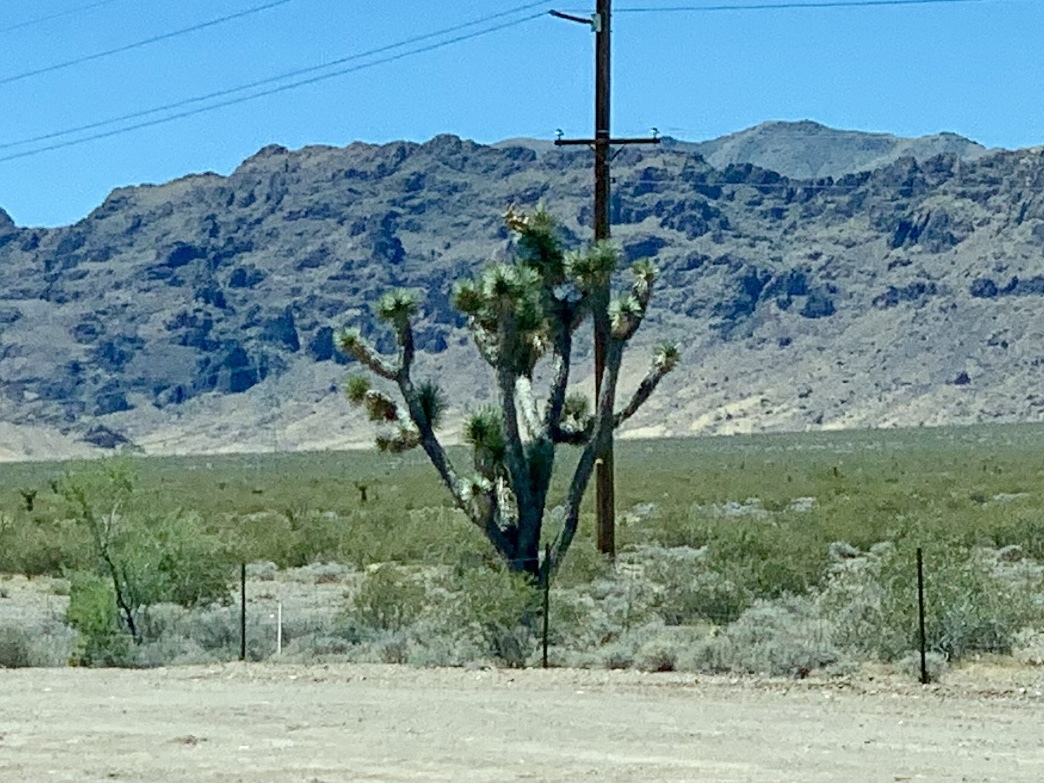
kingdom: Plantae
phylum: Tracheophyta
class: Liliopsida
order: Asparagales
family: Asparagaceae
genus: Yucca
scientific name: Yucca brevifolia
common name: Joshua tree
